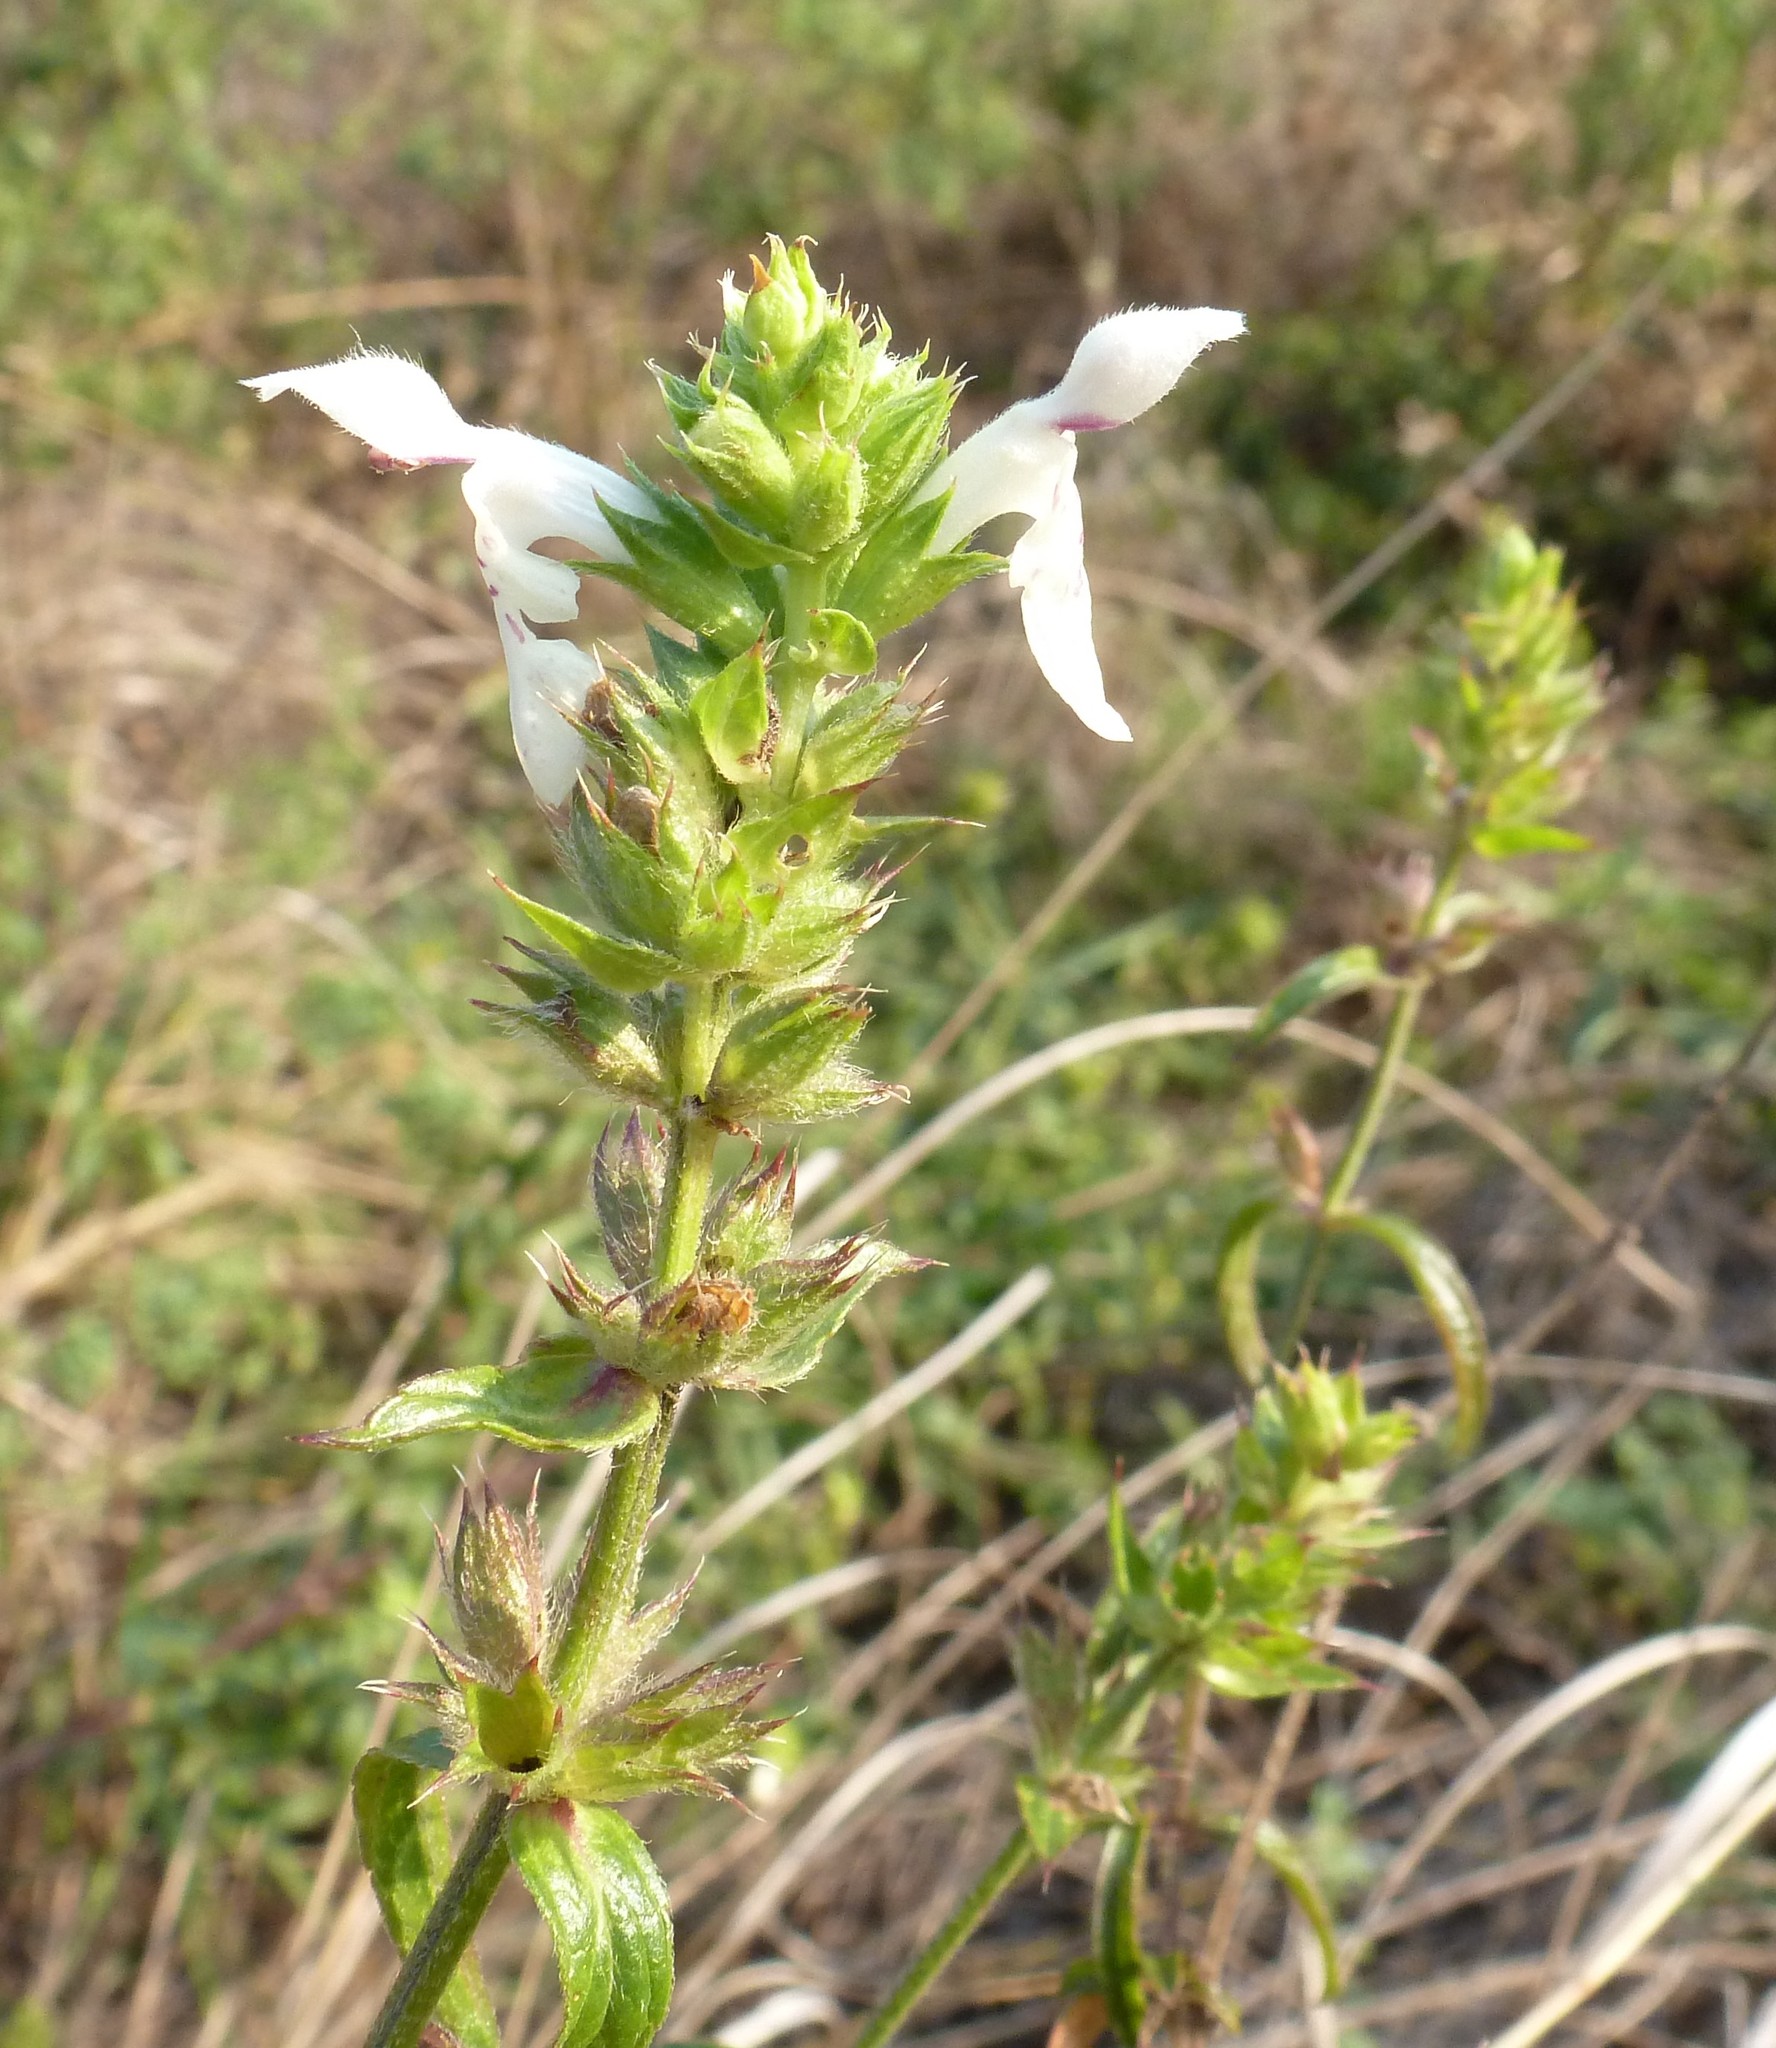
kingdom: Plantae
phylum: Tracheophyta
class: Magnoliopsida
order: Lamiales
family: Lamiaceae
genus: Stachys
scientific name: Stachys atherocalyx
